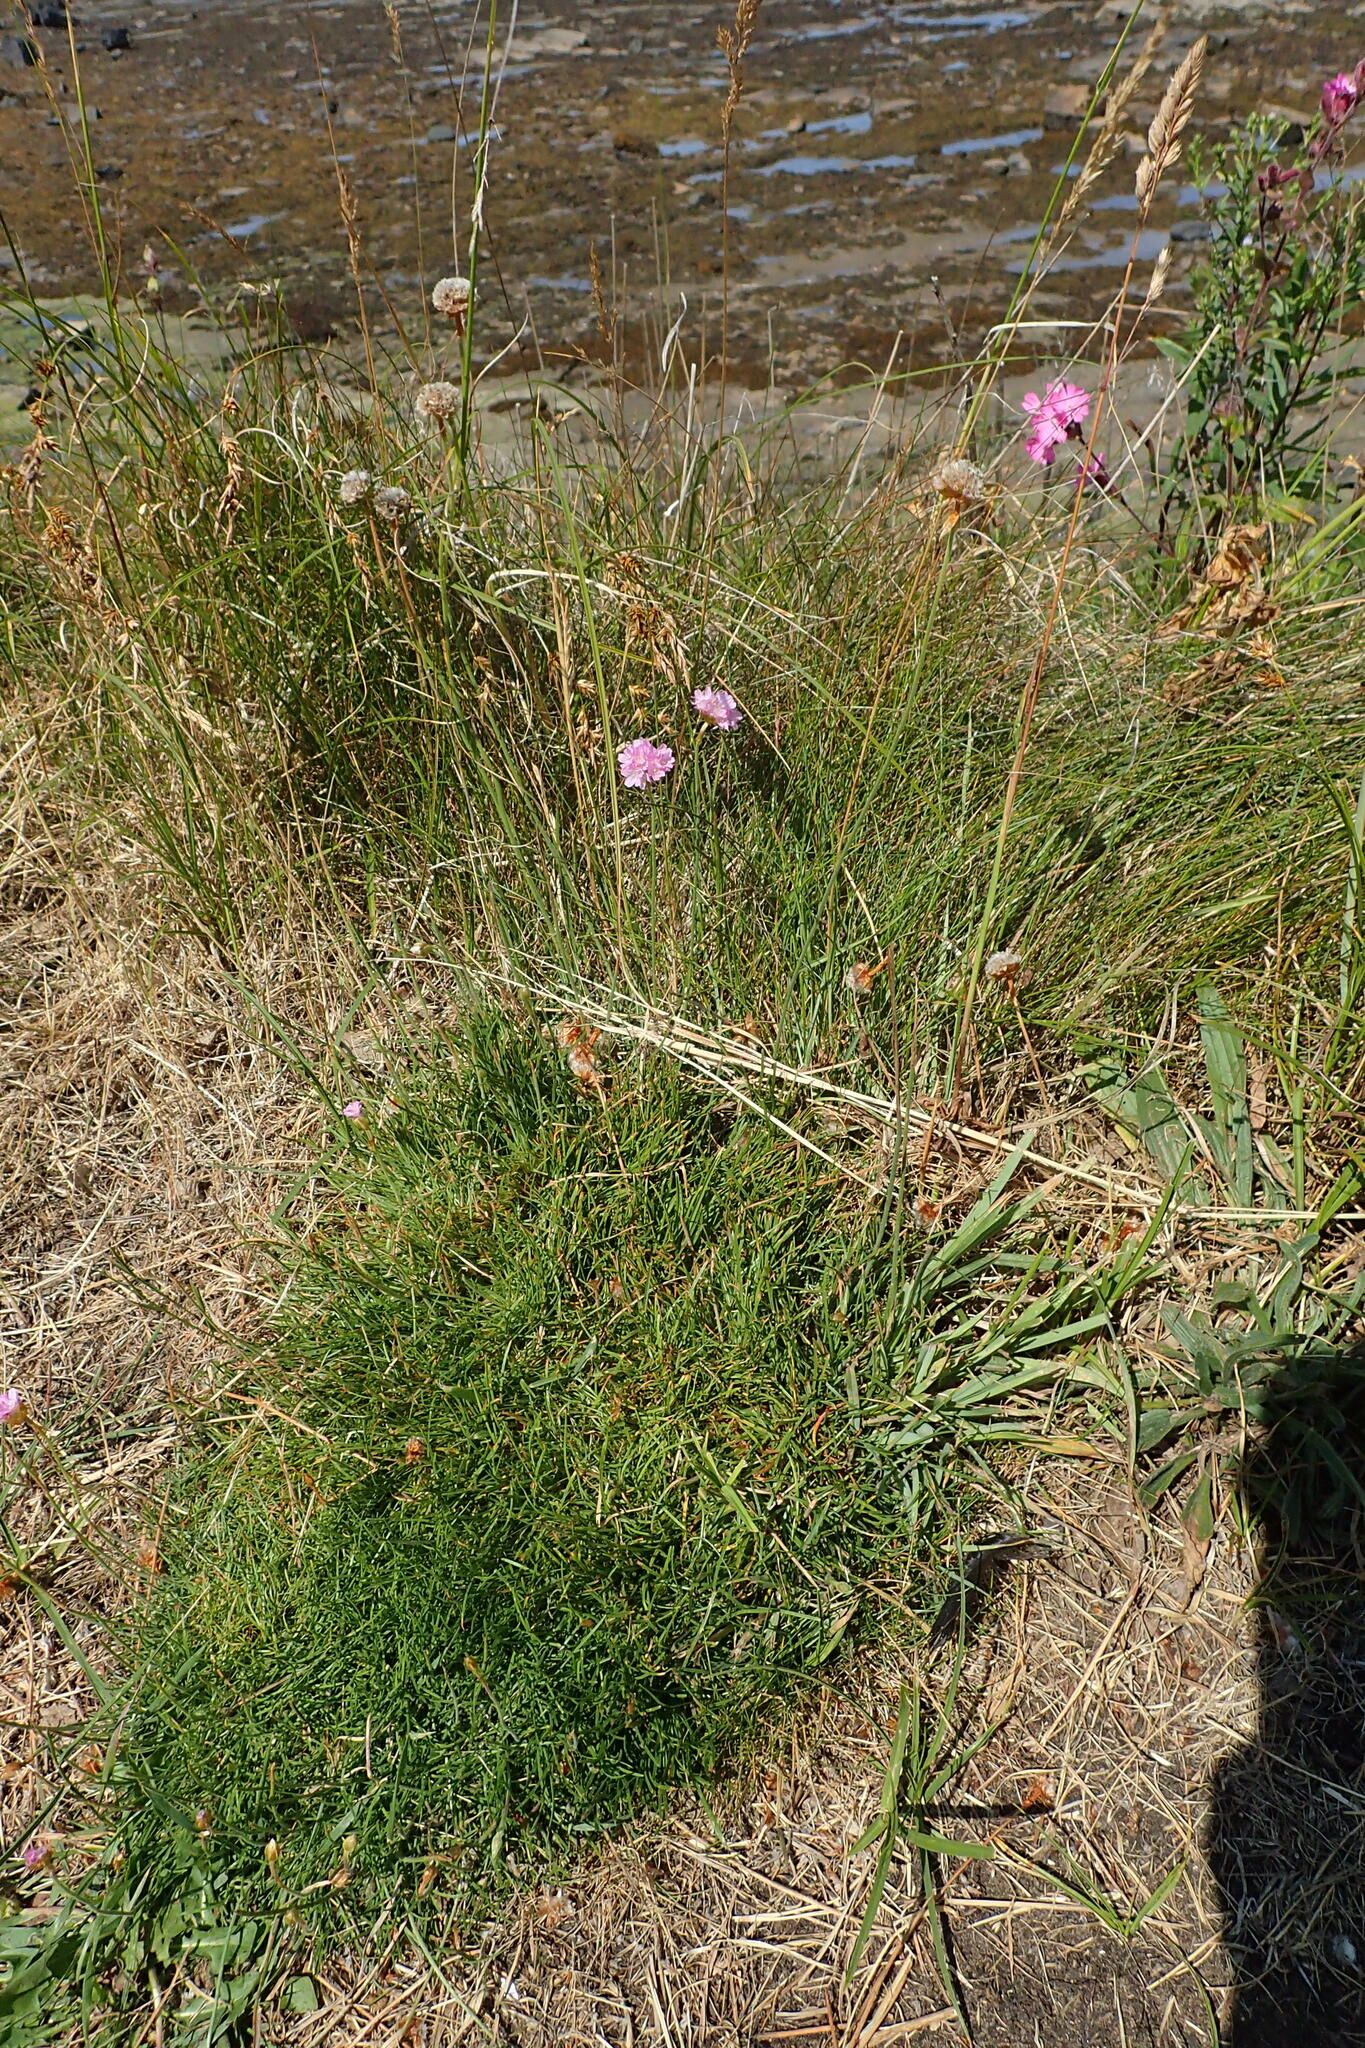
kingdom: Plantae
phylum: Tracheophyta
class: Magnoliopsida
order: Caryophyllales
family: Plumbaginaceae
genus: Armeria
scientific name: Armeria maritima
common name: Thrift
